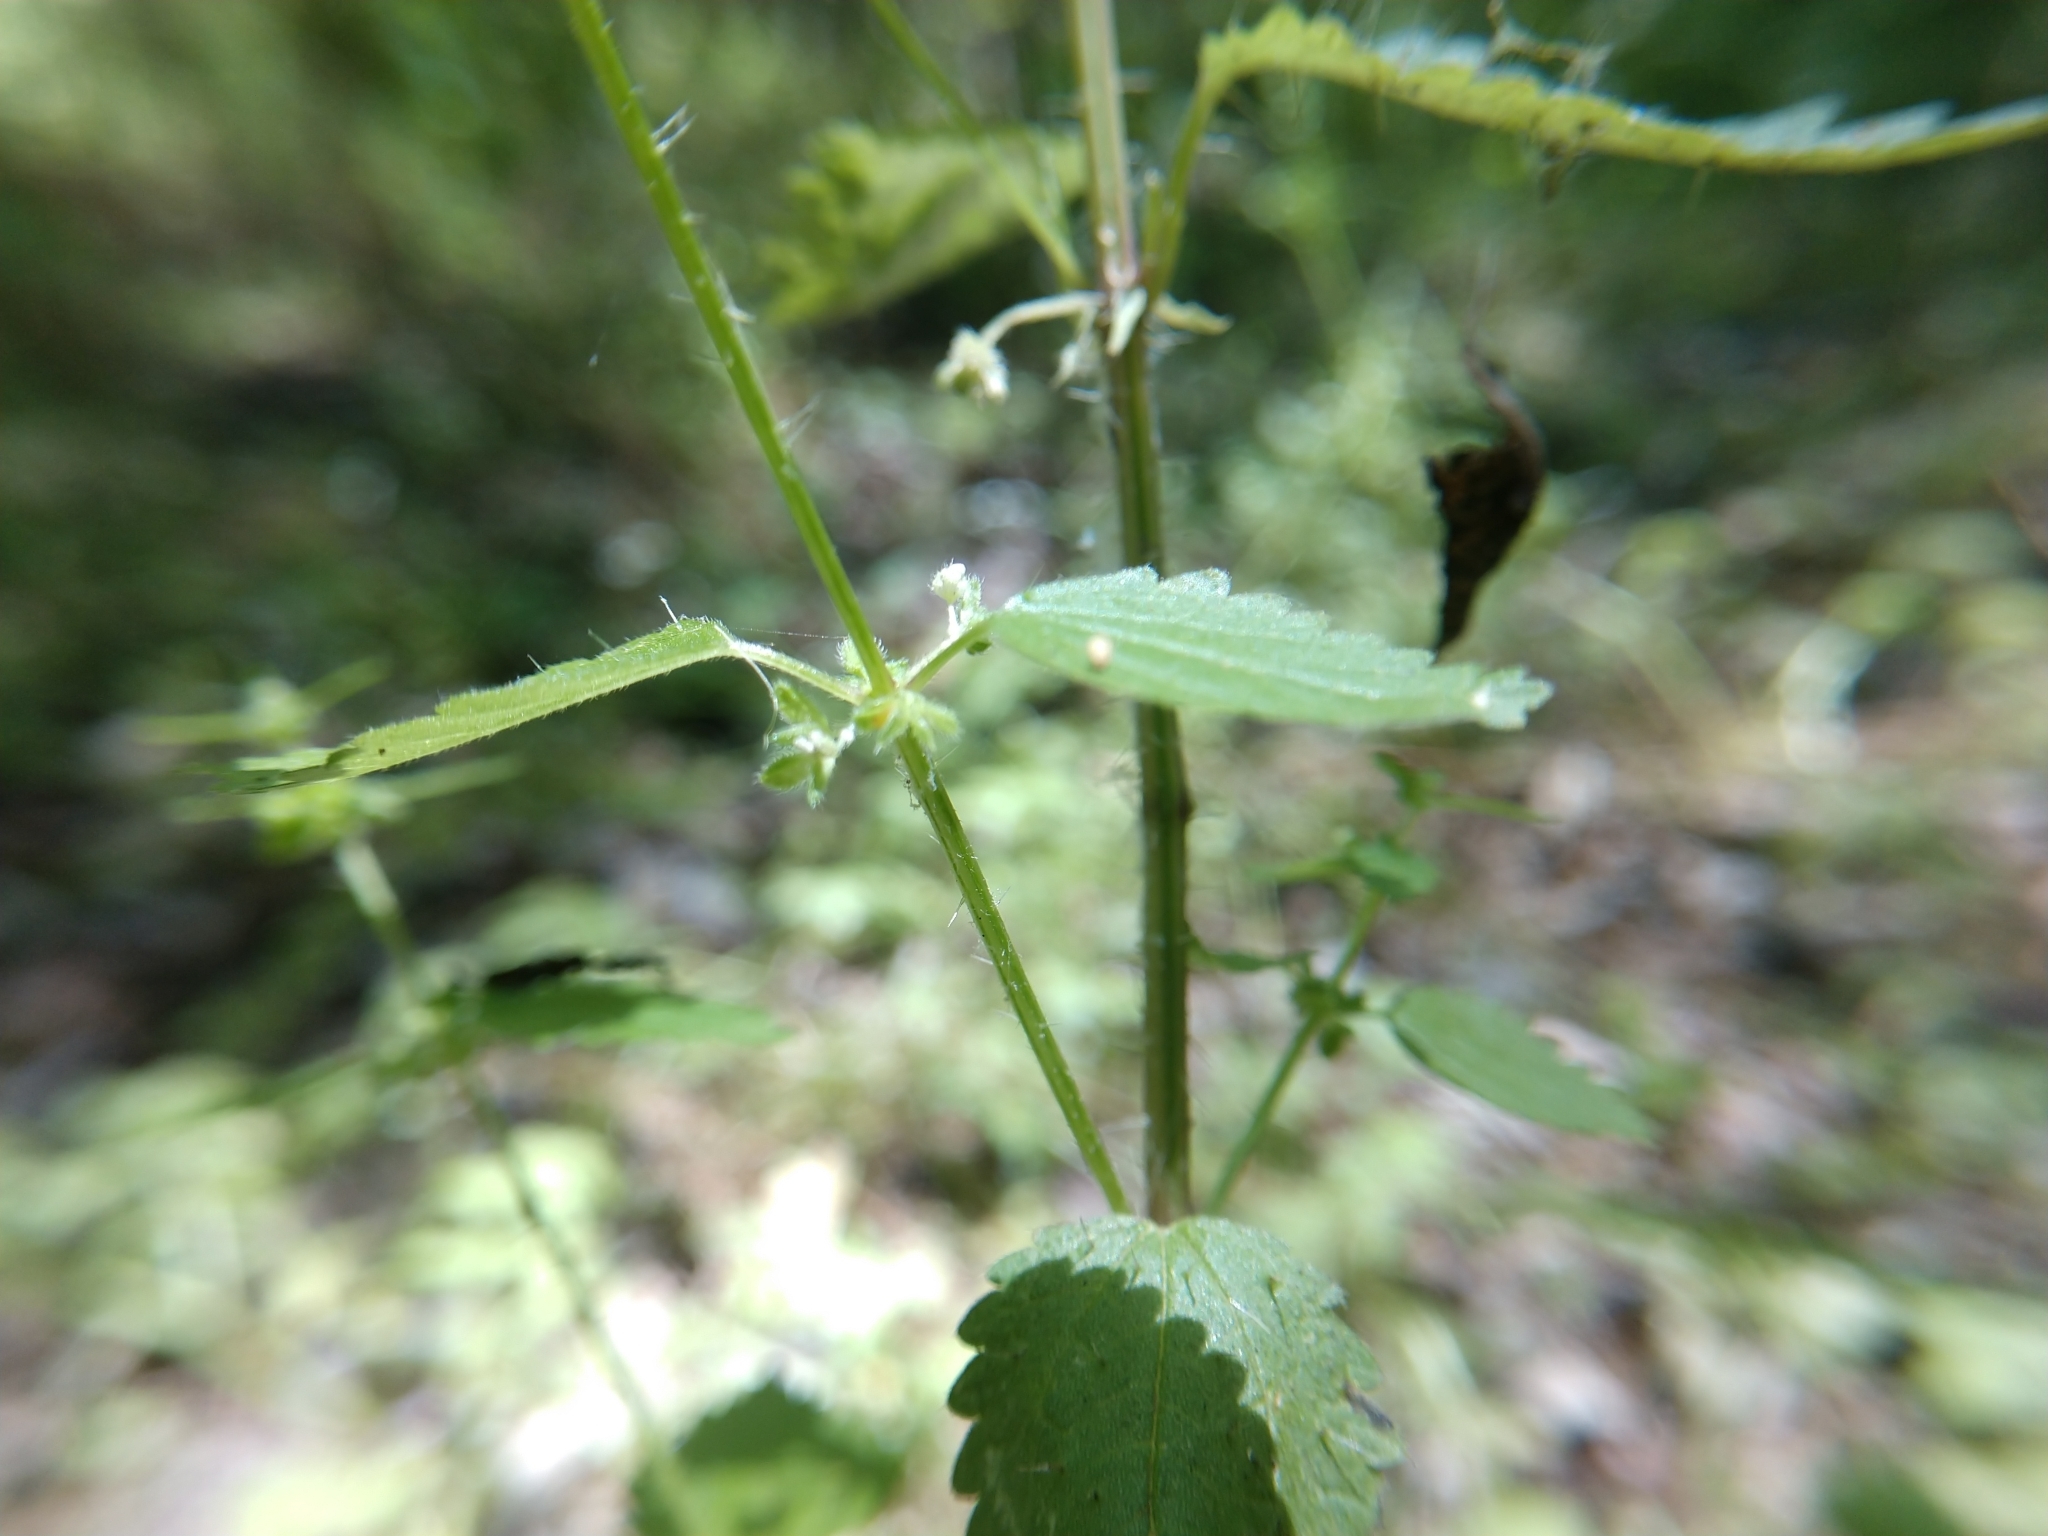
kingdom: Plantae
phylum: Tracheophyta
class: Magnoliopsida
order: Rosales
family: Urticaceae
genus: Urtica
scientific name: Urtica chamaedryoides
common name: Heart-leaf nettle
